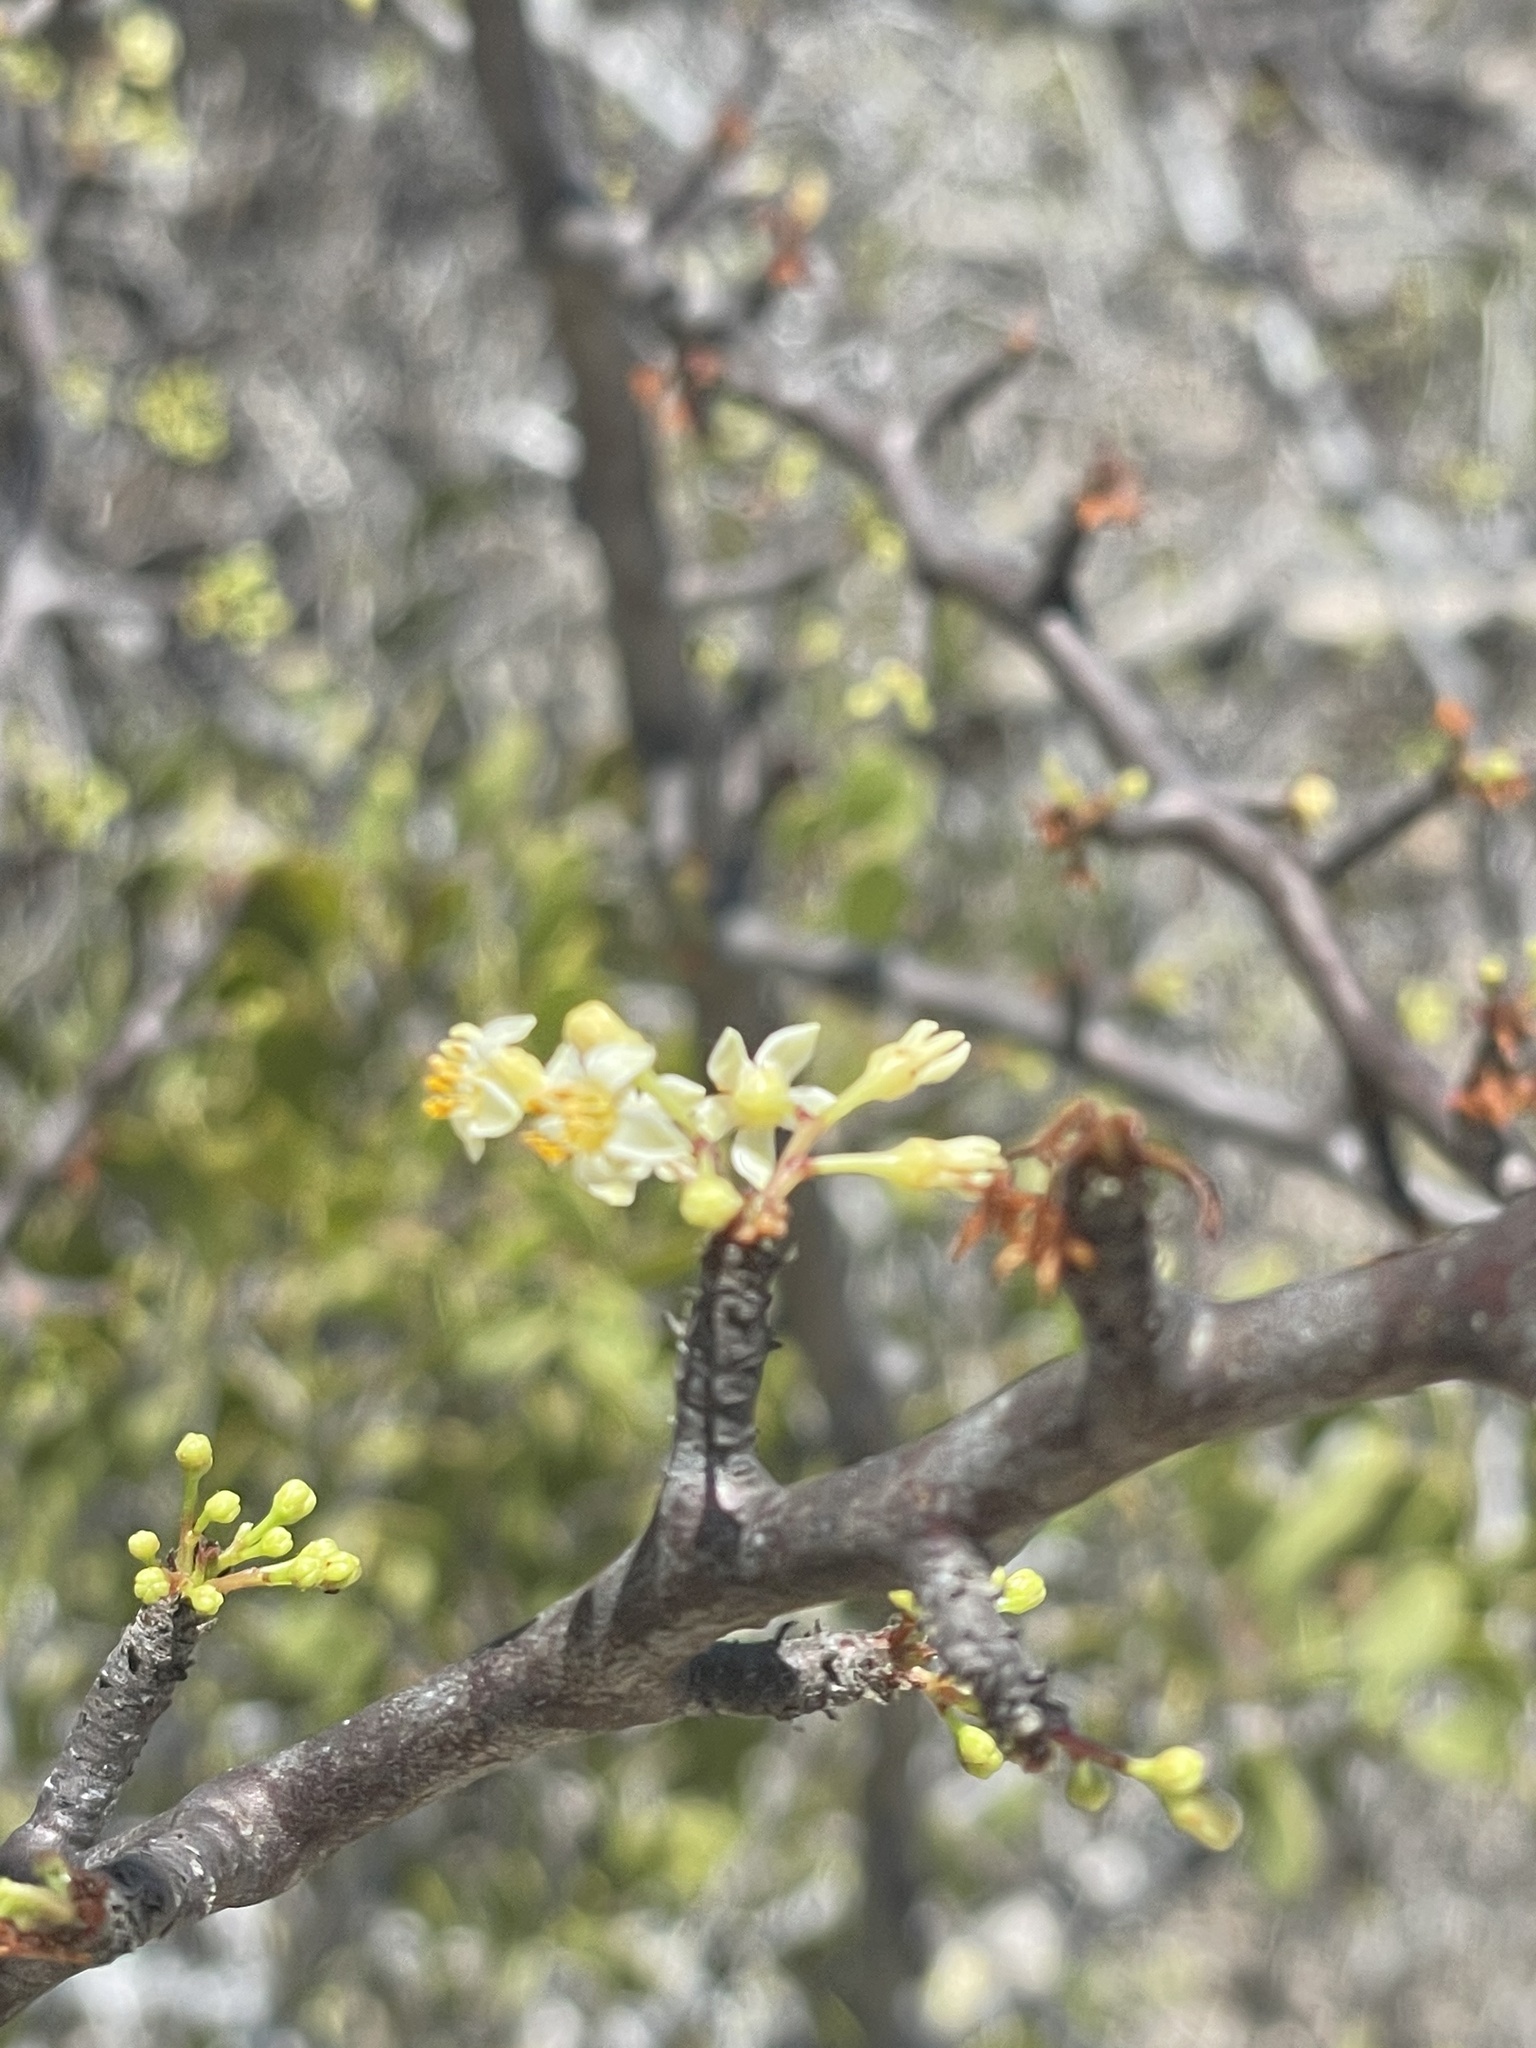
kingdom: Plantae
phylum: Tracheophyta
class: Magnoliopsida
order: Brassicales
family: Capparaceae
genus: Atamisquea
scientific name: Atamisquea emarginata
